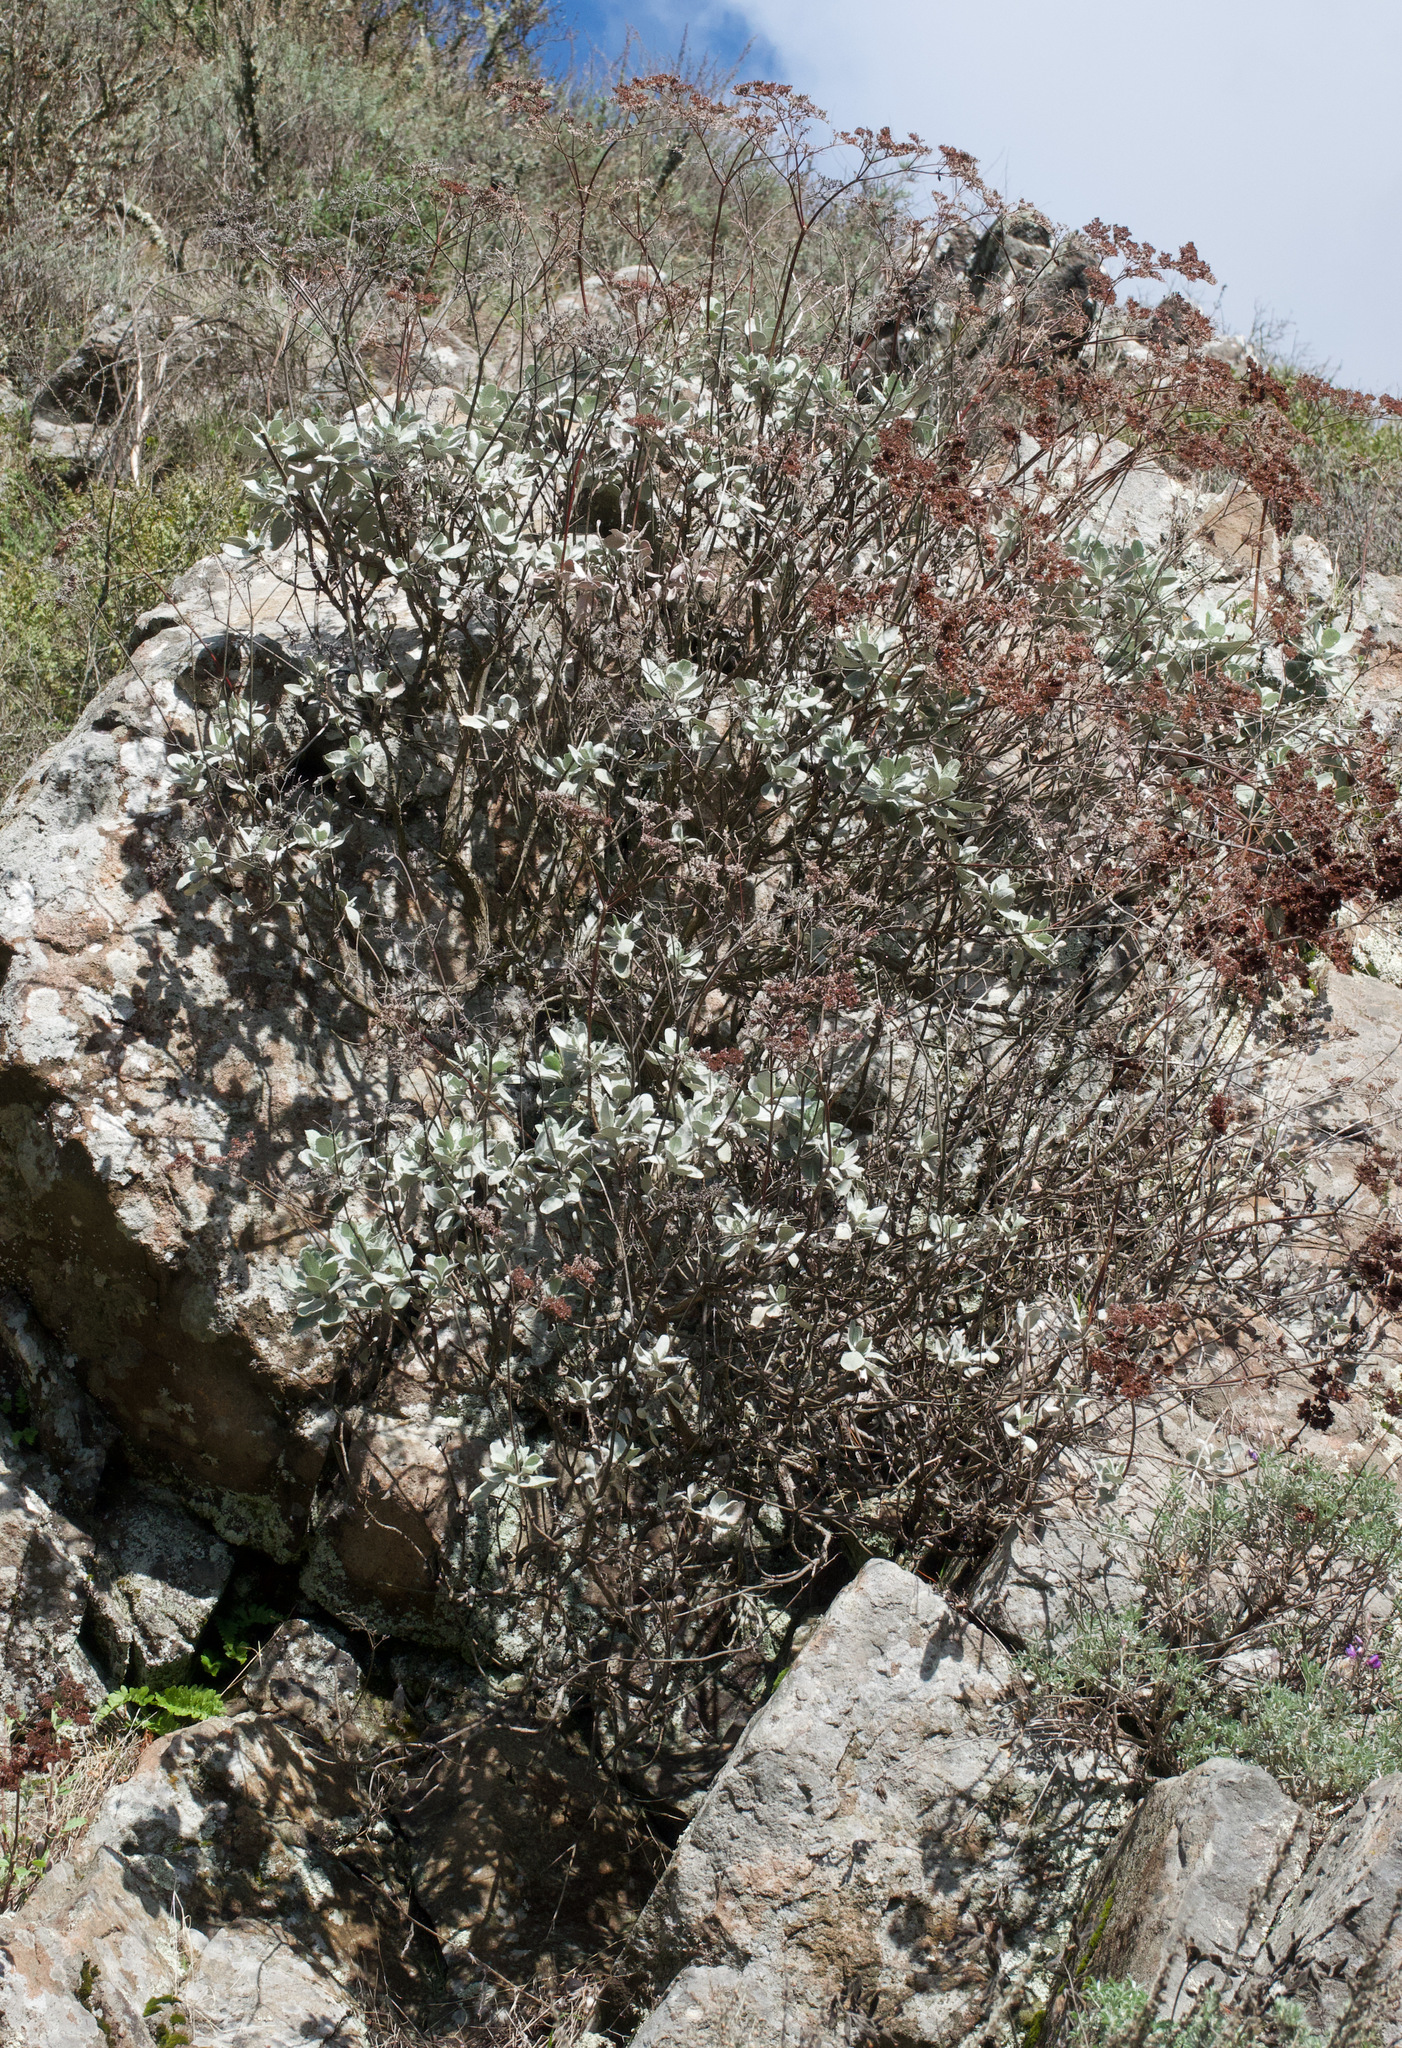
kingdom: Plantae
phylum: Tracheophyta
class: Magnoliopsida
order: Caryophyllales
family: Polygonaceae
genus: Eriogonum
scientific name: Eriogonum giganteum
